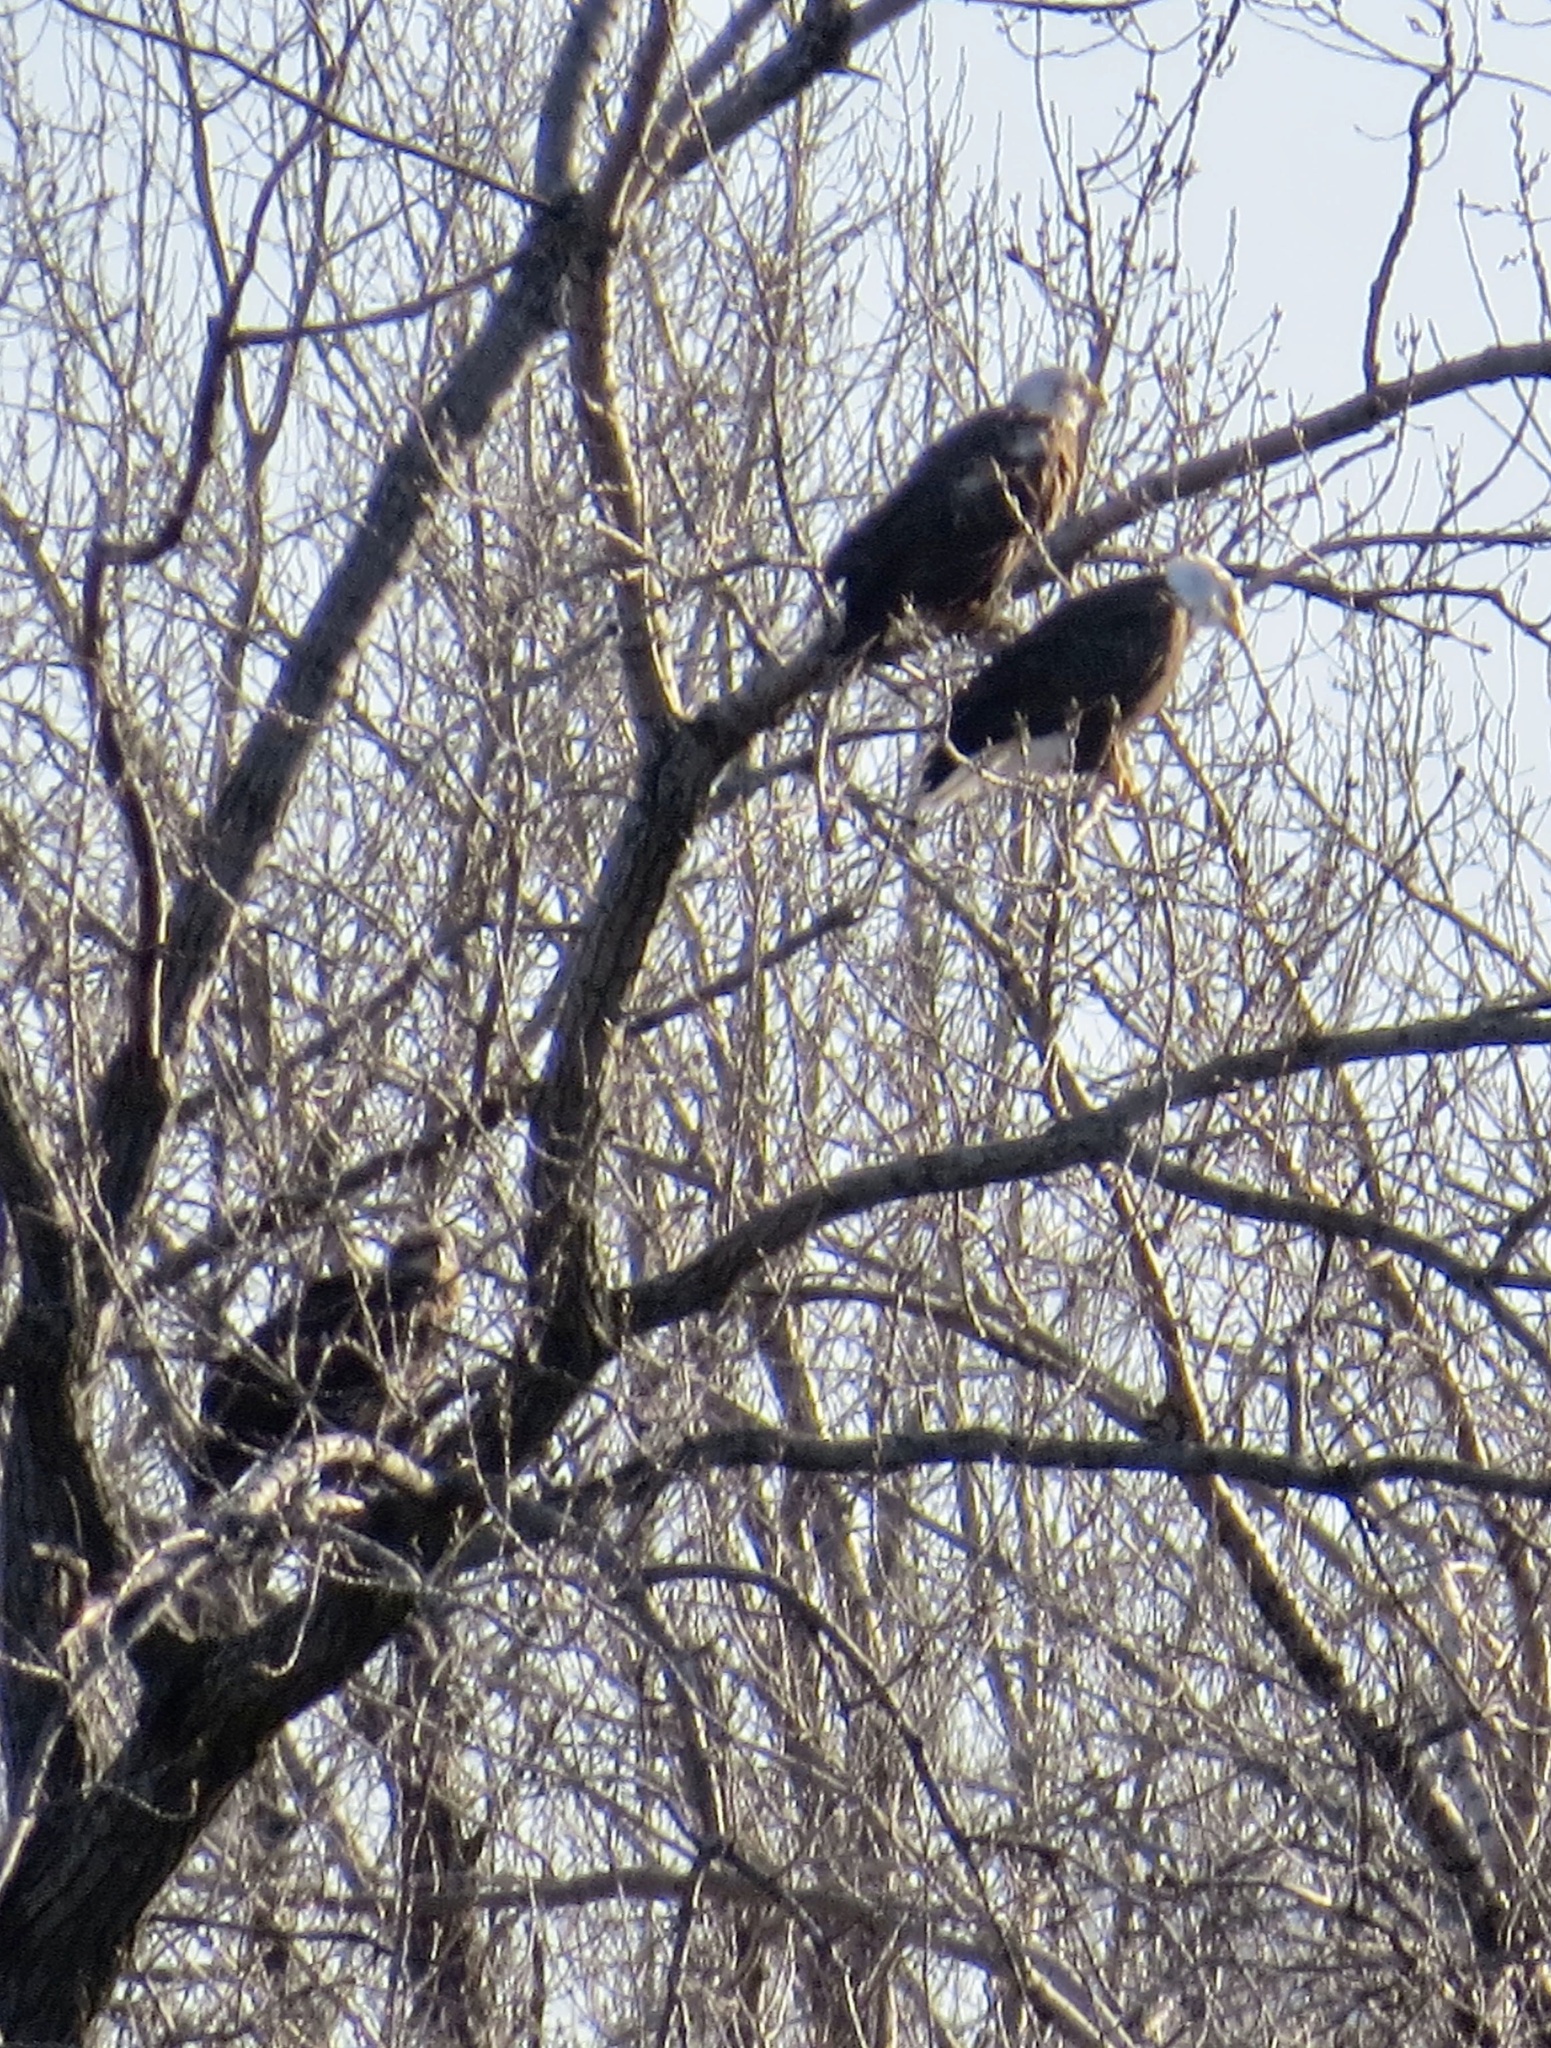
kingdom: Animalia
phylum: Chordata
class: Aves
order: Accipitriformes
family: Accipitridae
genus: Haliaeetus
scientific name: Haliaeetus leucocephalus
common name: Bald eagle
